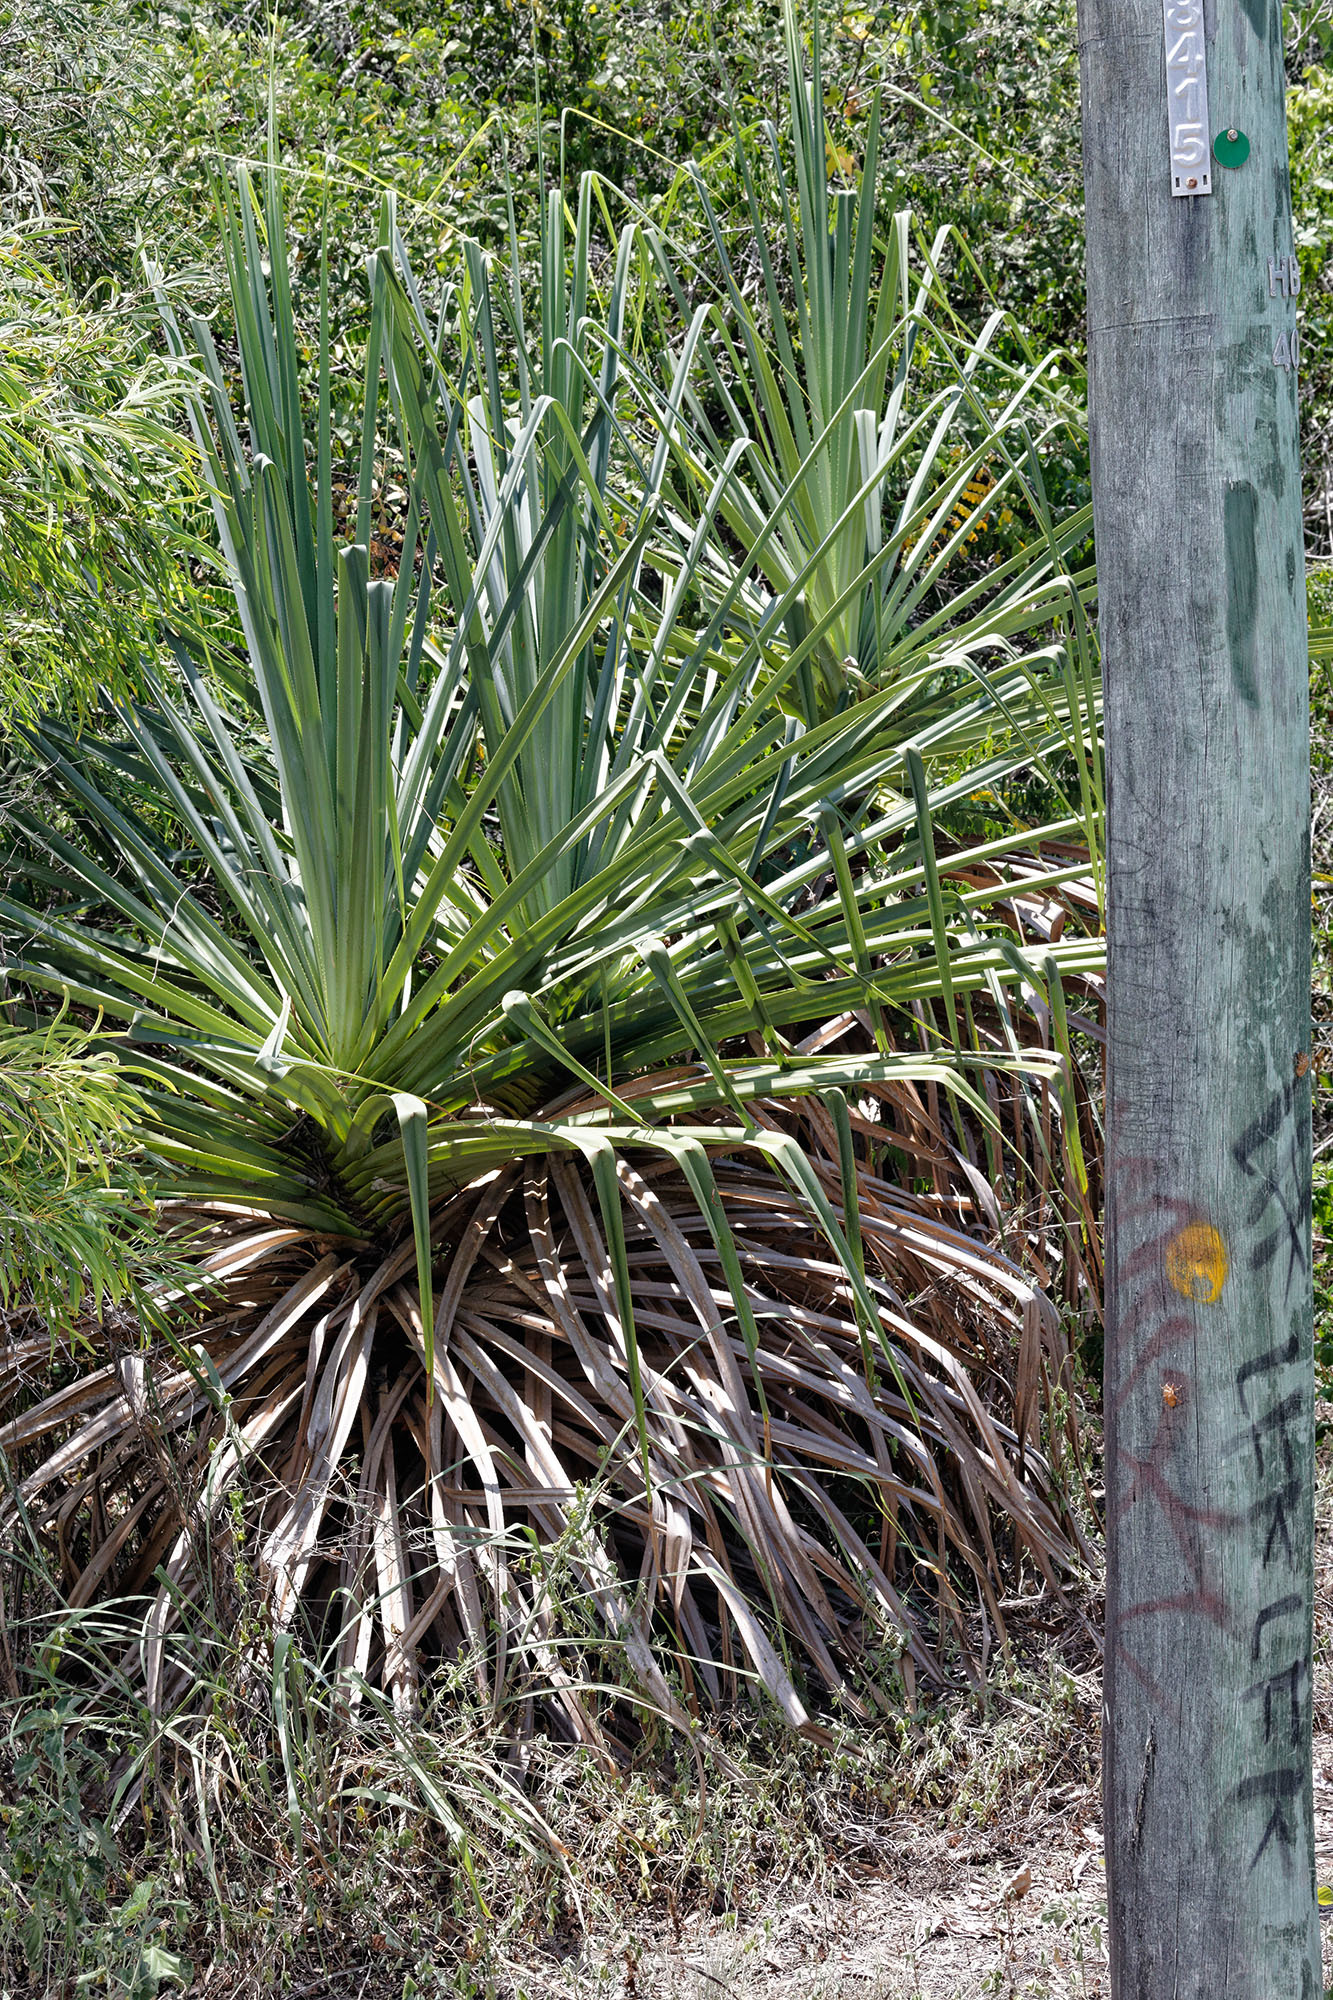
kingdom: Plantae
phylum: Tracheophyta
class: Liliopsida
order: Pandanales
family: Pandanaceae
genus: Pandanus
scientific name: Pandanus cookii
